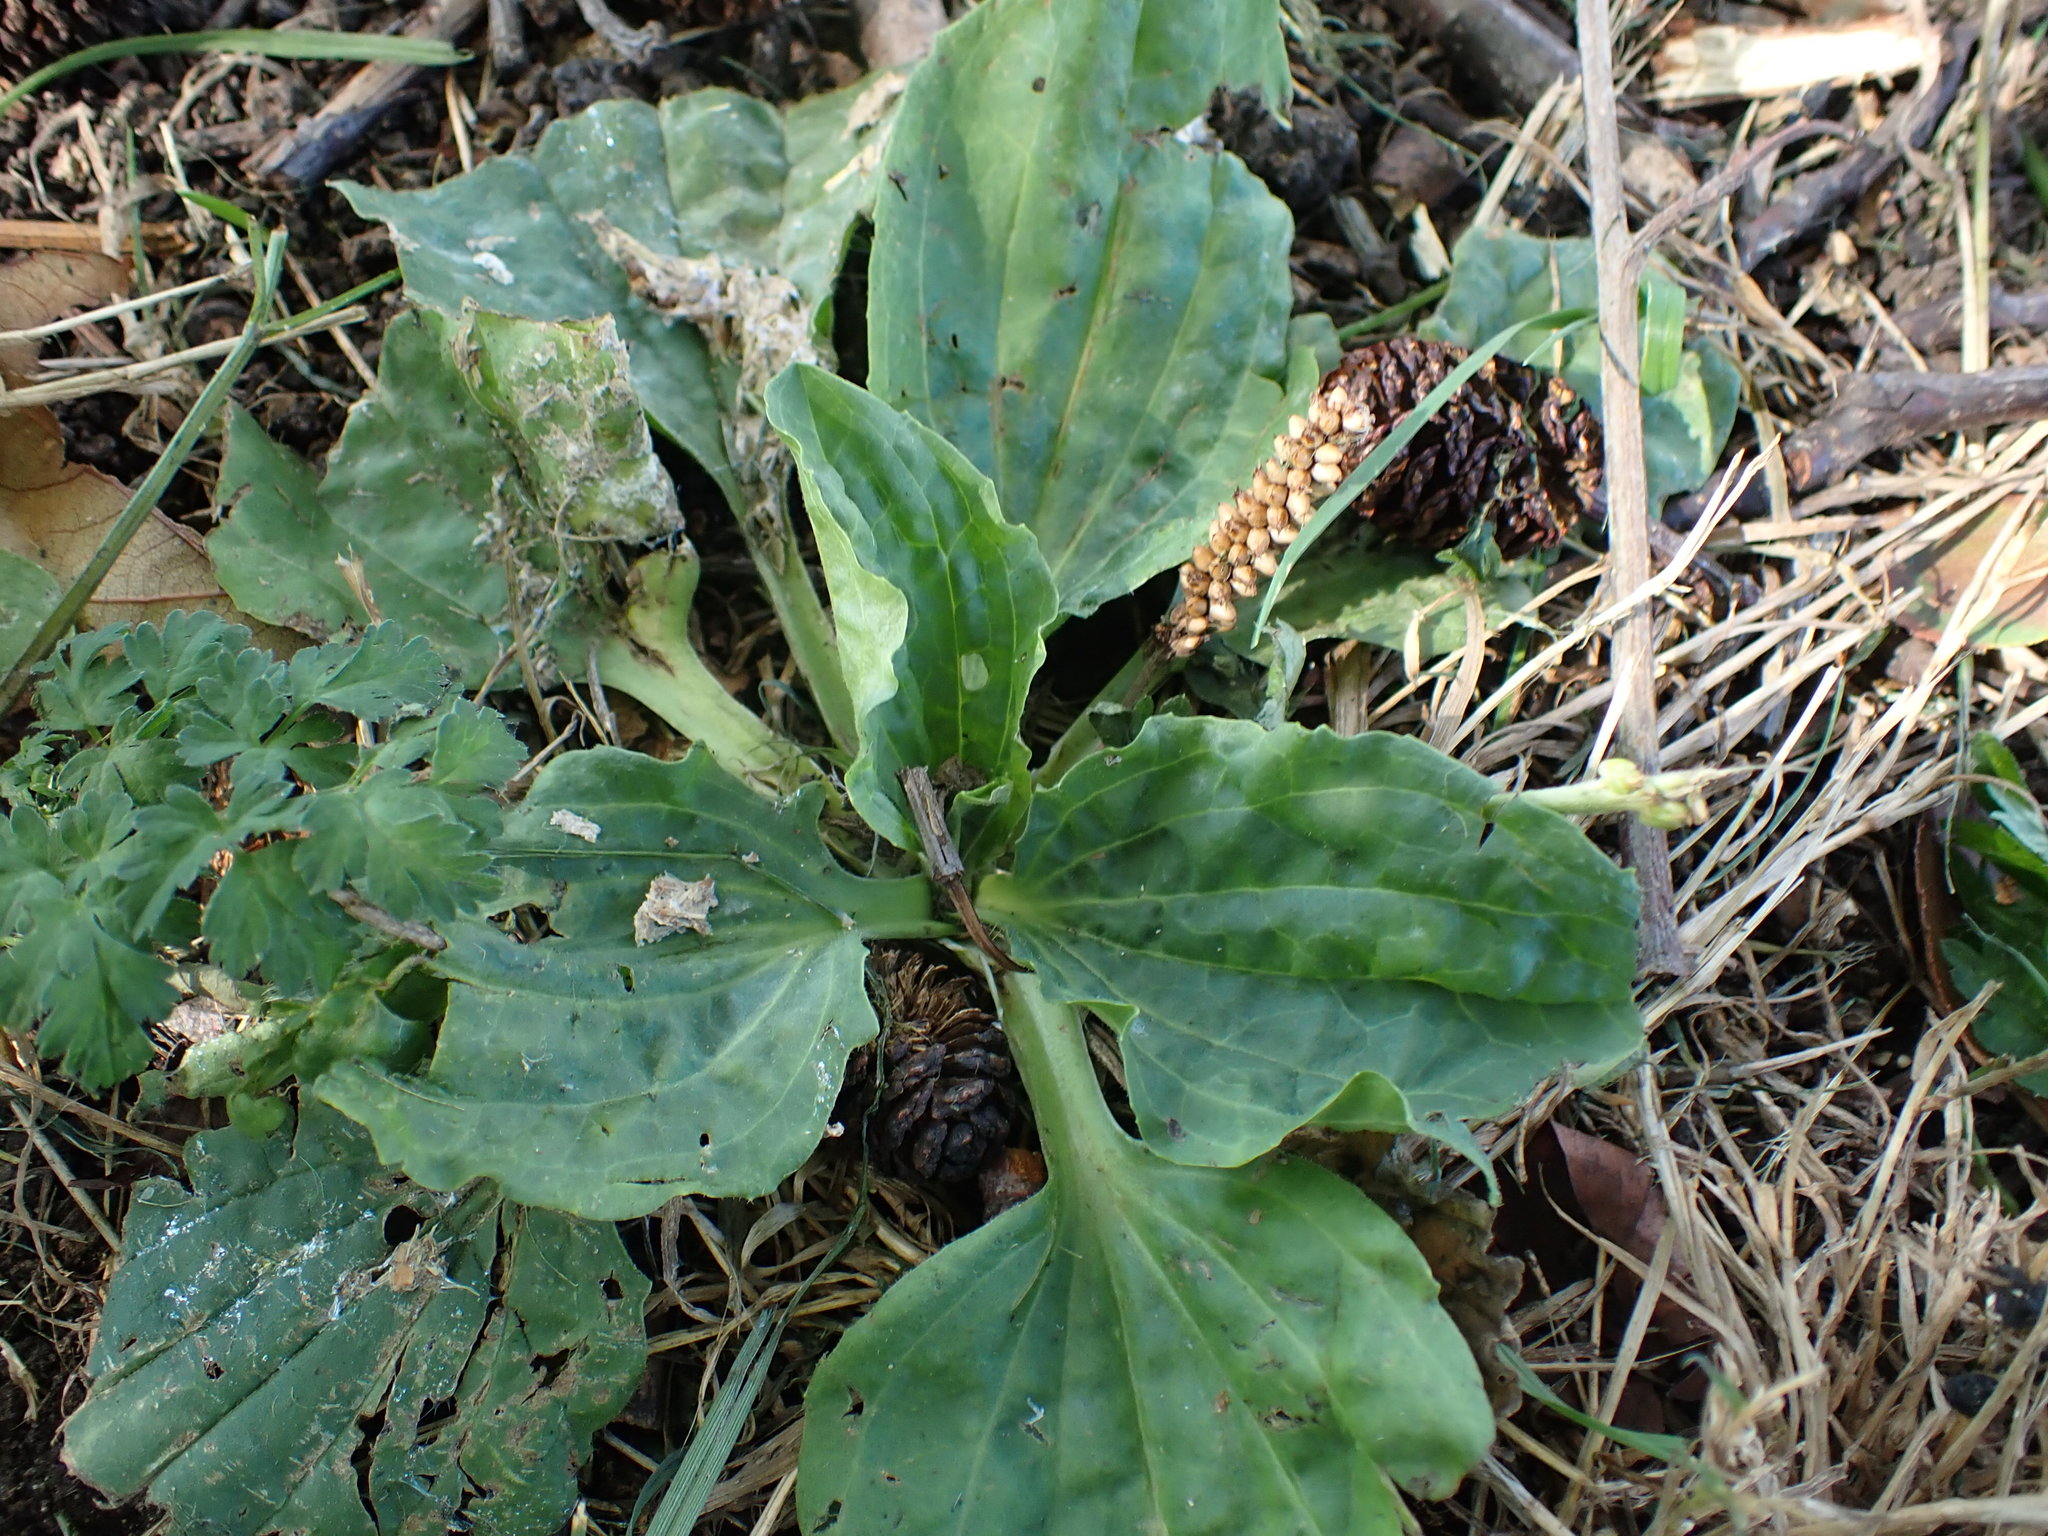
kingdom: Plantae
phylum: Tracheophyta
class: Magnoliopsida
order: Lamiales
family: Plantaginaceae
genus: Plantago
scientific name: Plantago major
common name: Common plantain
